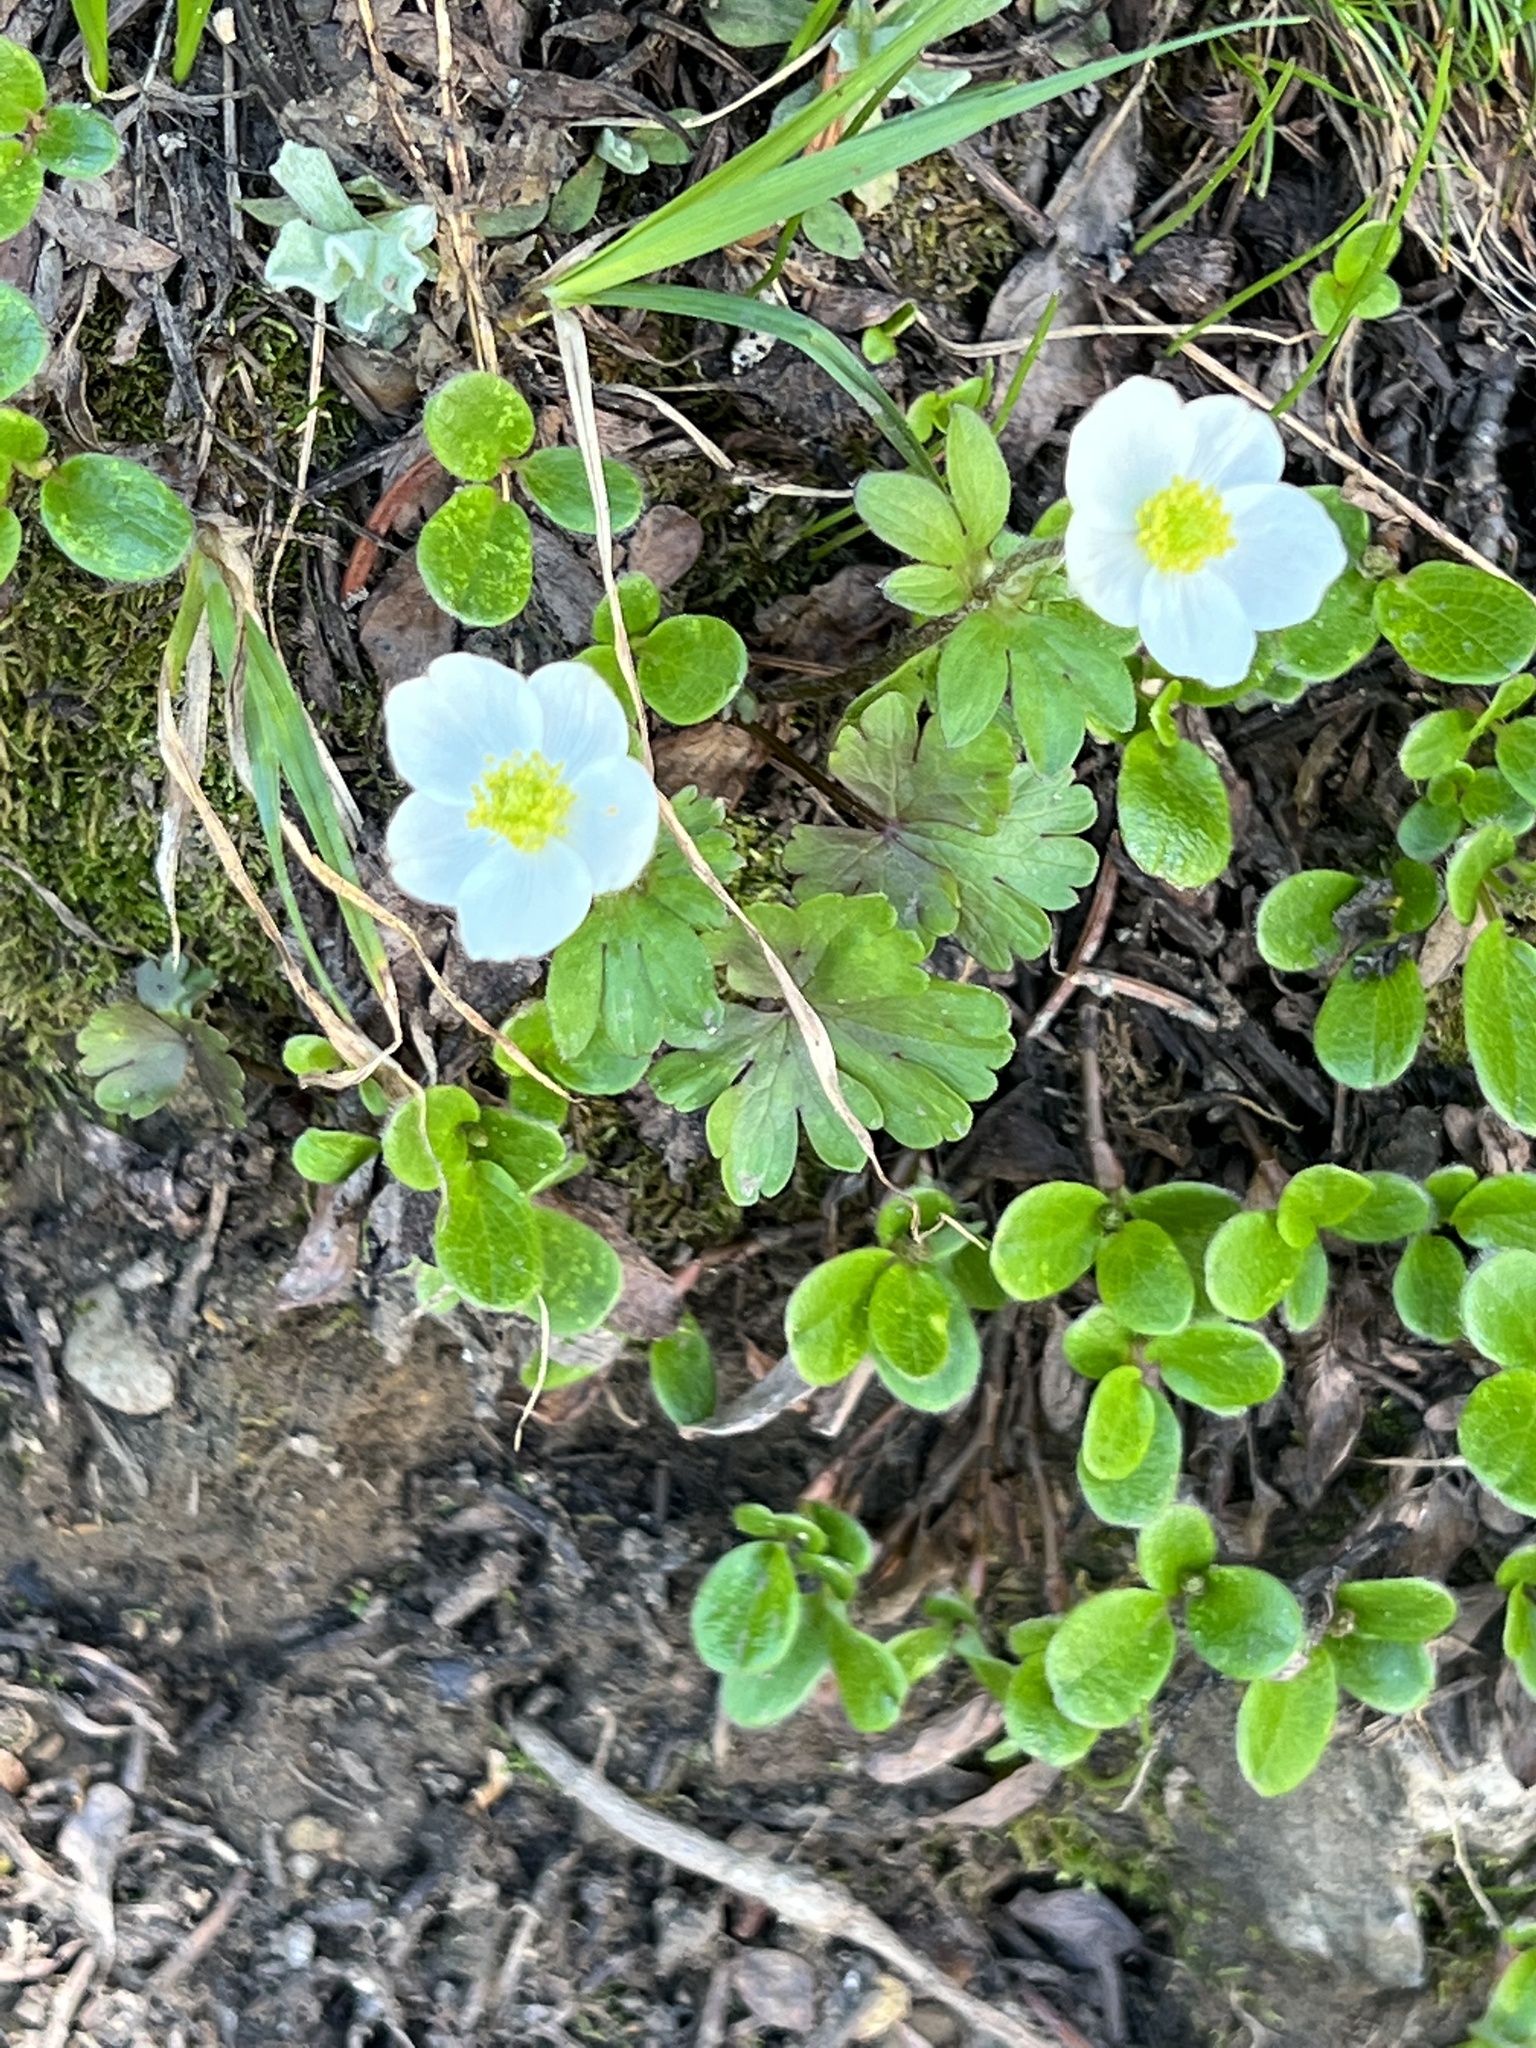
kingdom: Plantae
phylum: Tracheophyta
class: Magnoliopsida
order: Ranunculales
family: Ranunculaceae
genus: Anemone
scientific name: Anemone parviflora
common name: Northern anemone
